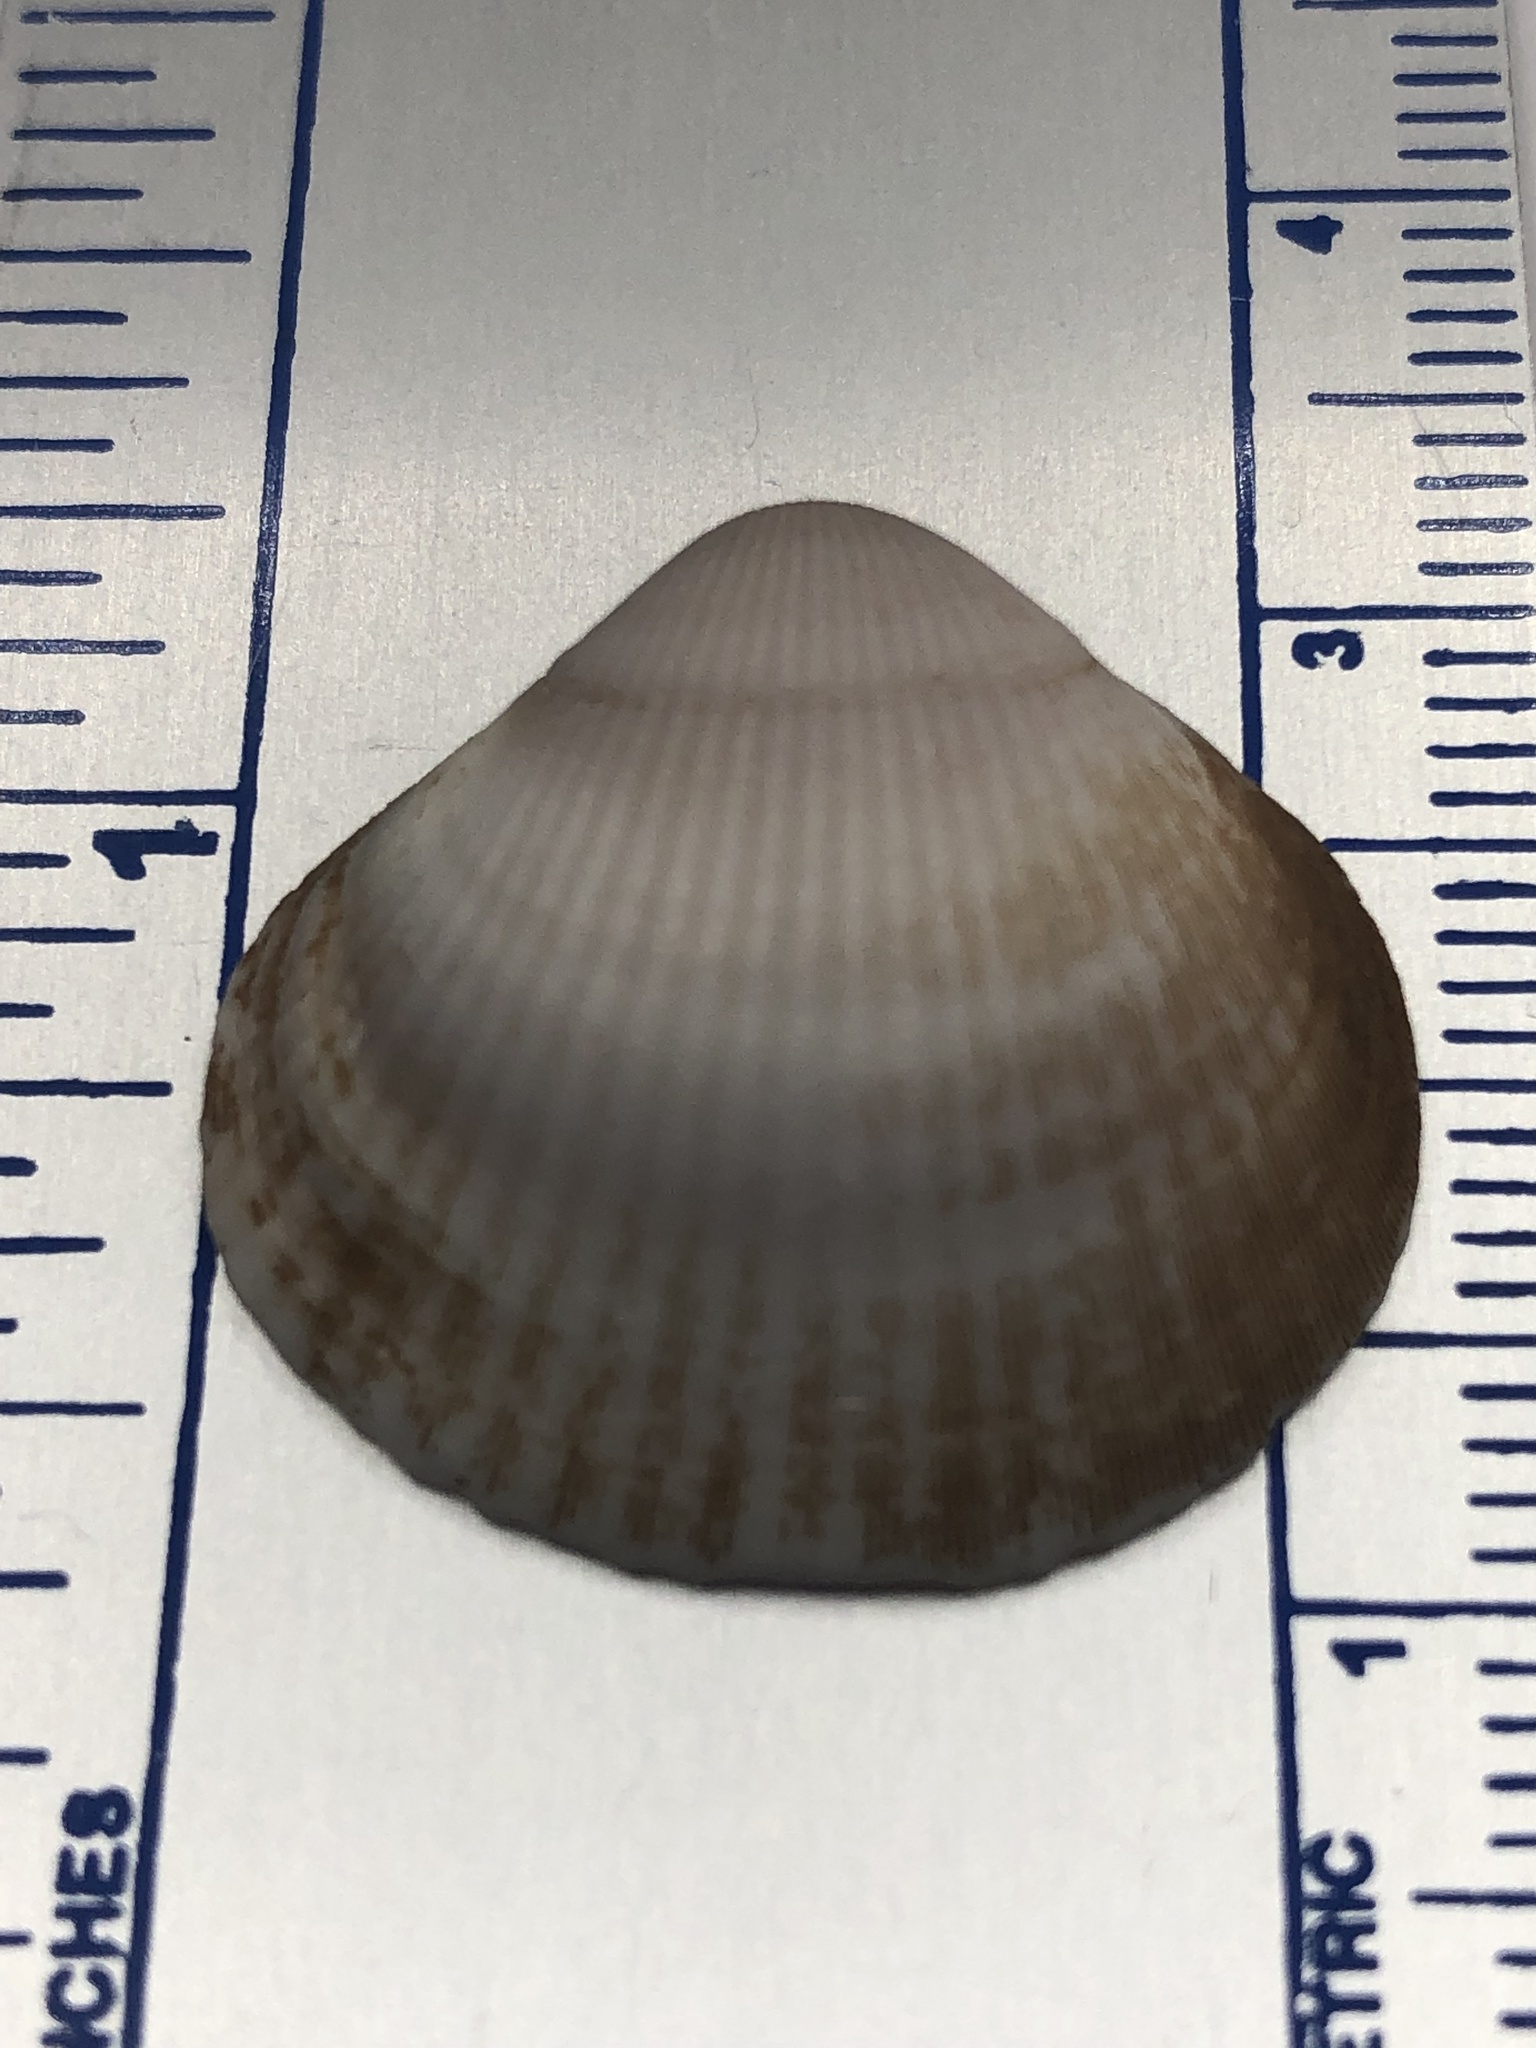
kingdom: Animalia
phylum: Mollusca
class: Bivalvia
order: Arcida
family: Glycymerididae
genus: Glycymeris
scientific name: Glycymeris spectralis
